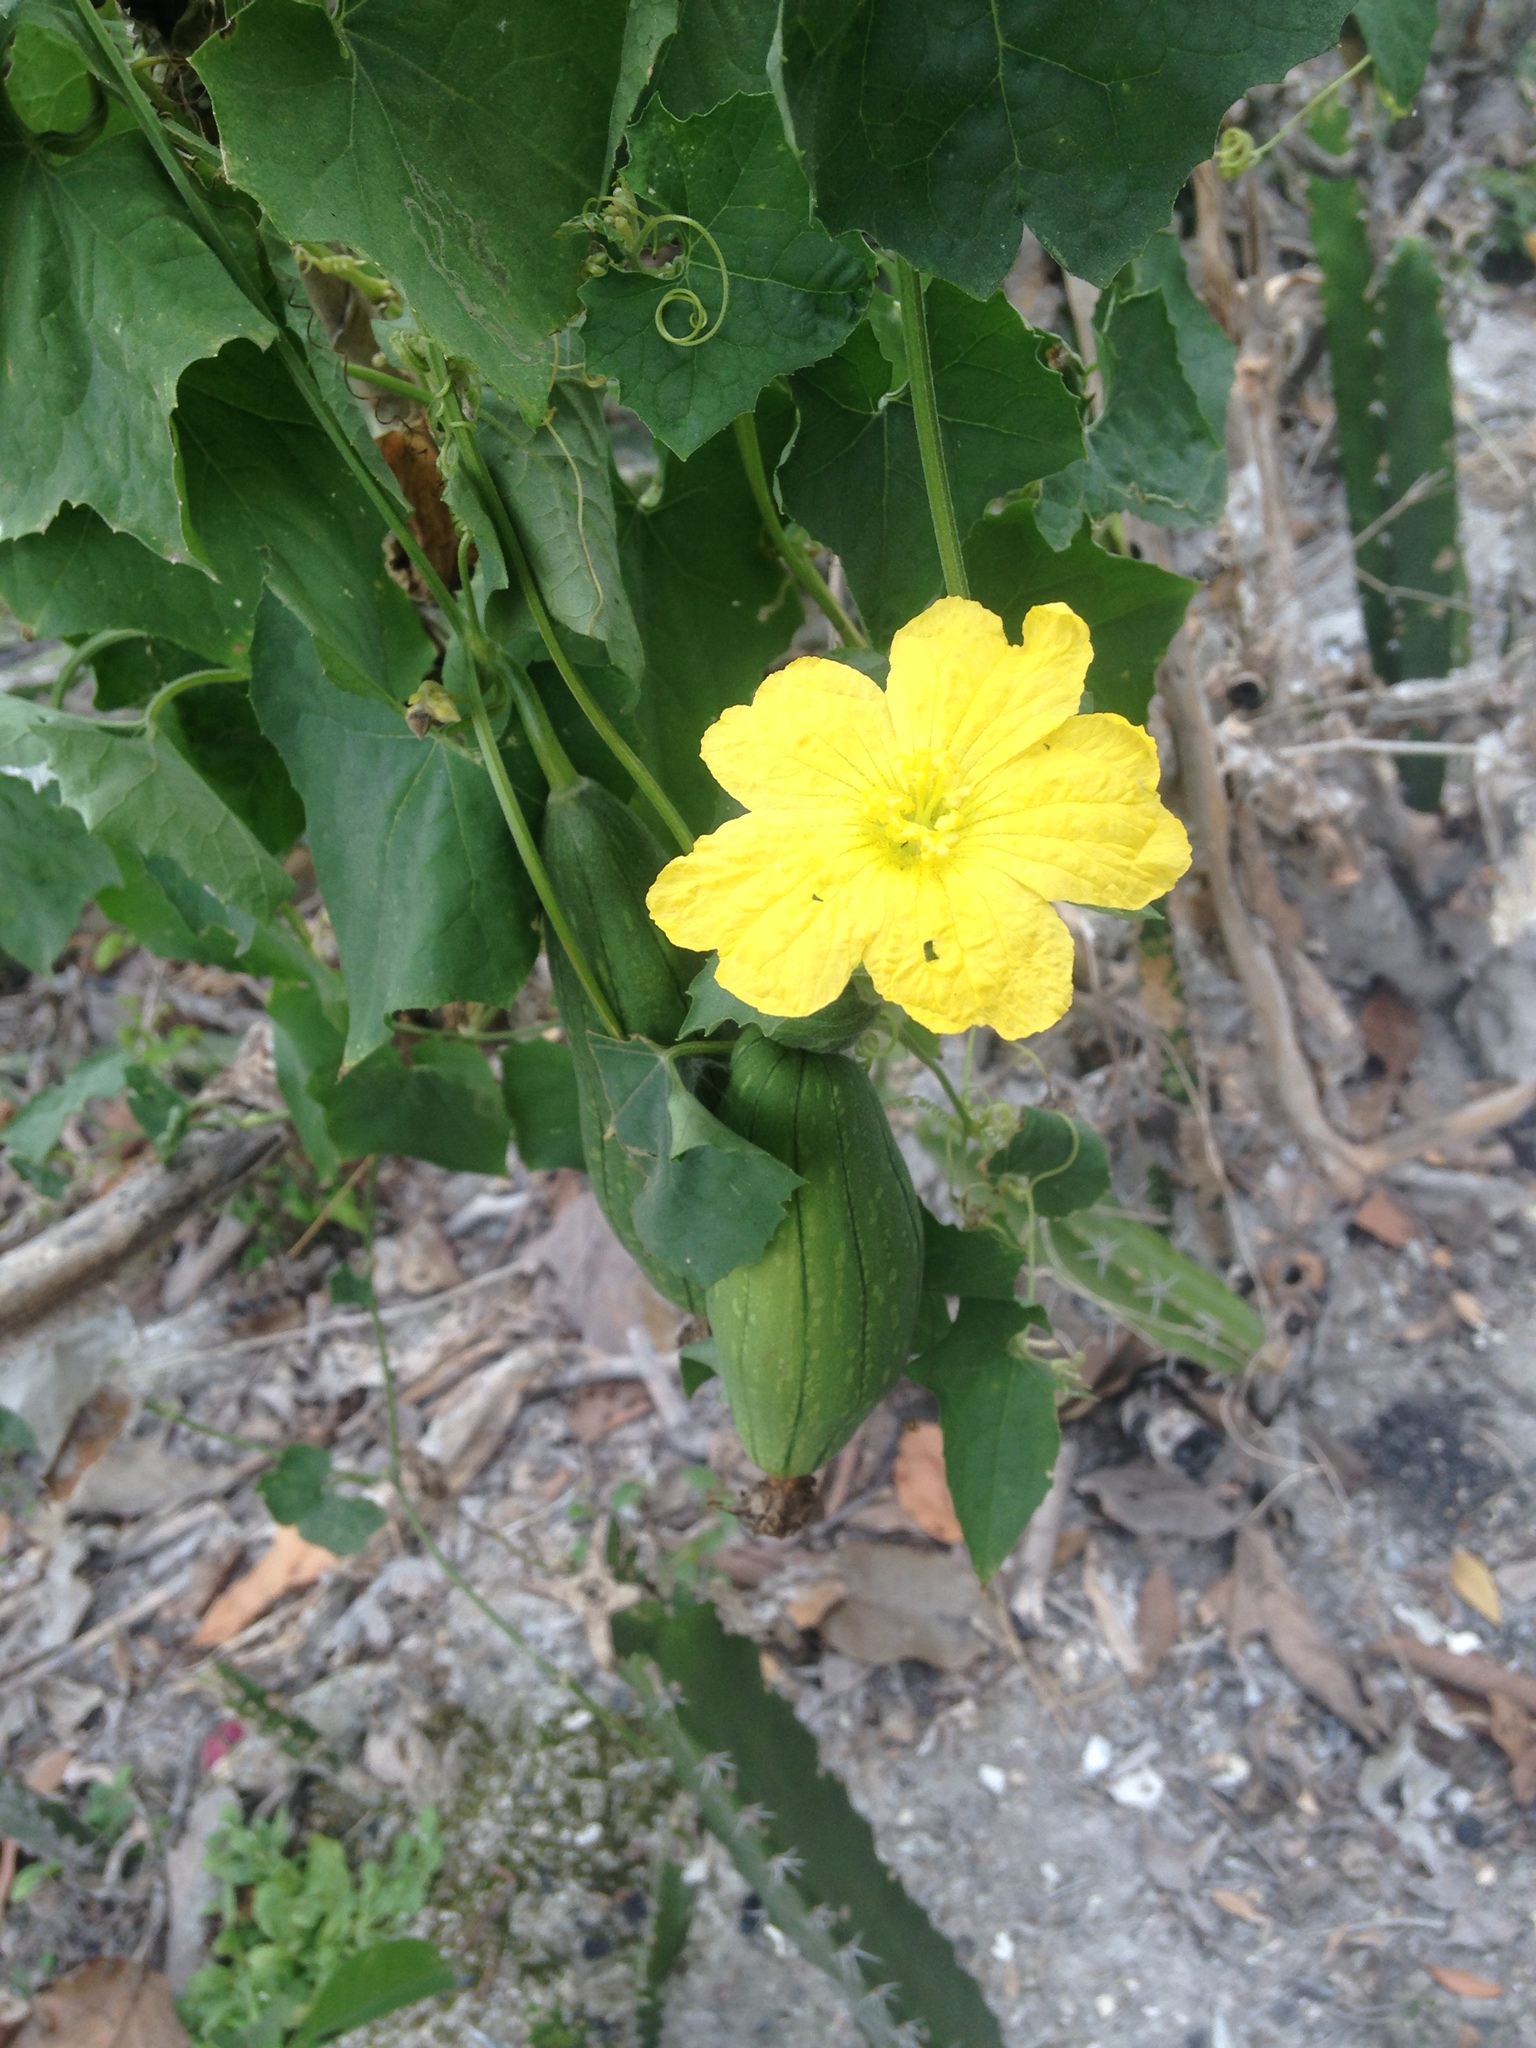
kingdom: Plantae
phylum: Tracheophyta
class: Magnoliopsida
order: Cucurbitales
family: Cucurbitaceae
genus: Luffa
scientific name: Luffa aegyptiaca
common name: Sponge gourd
